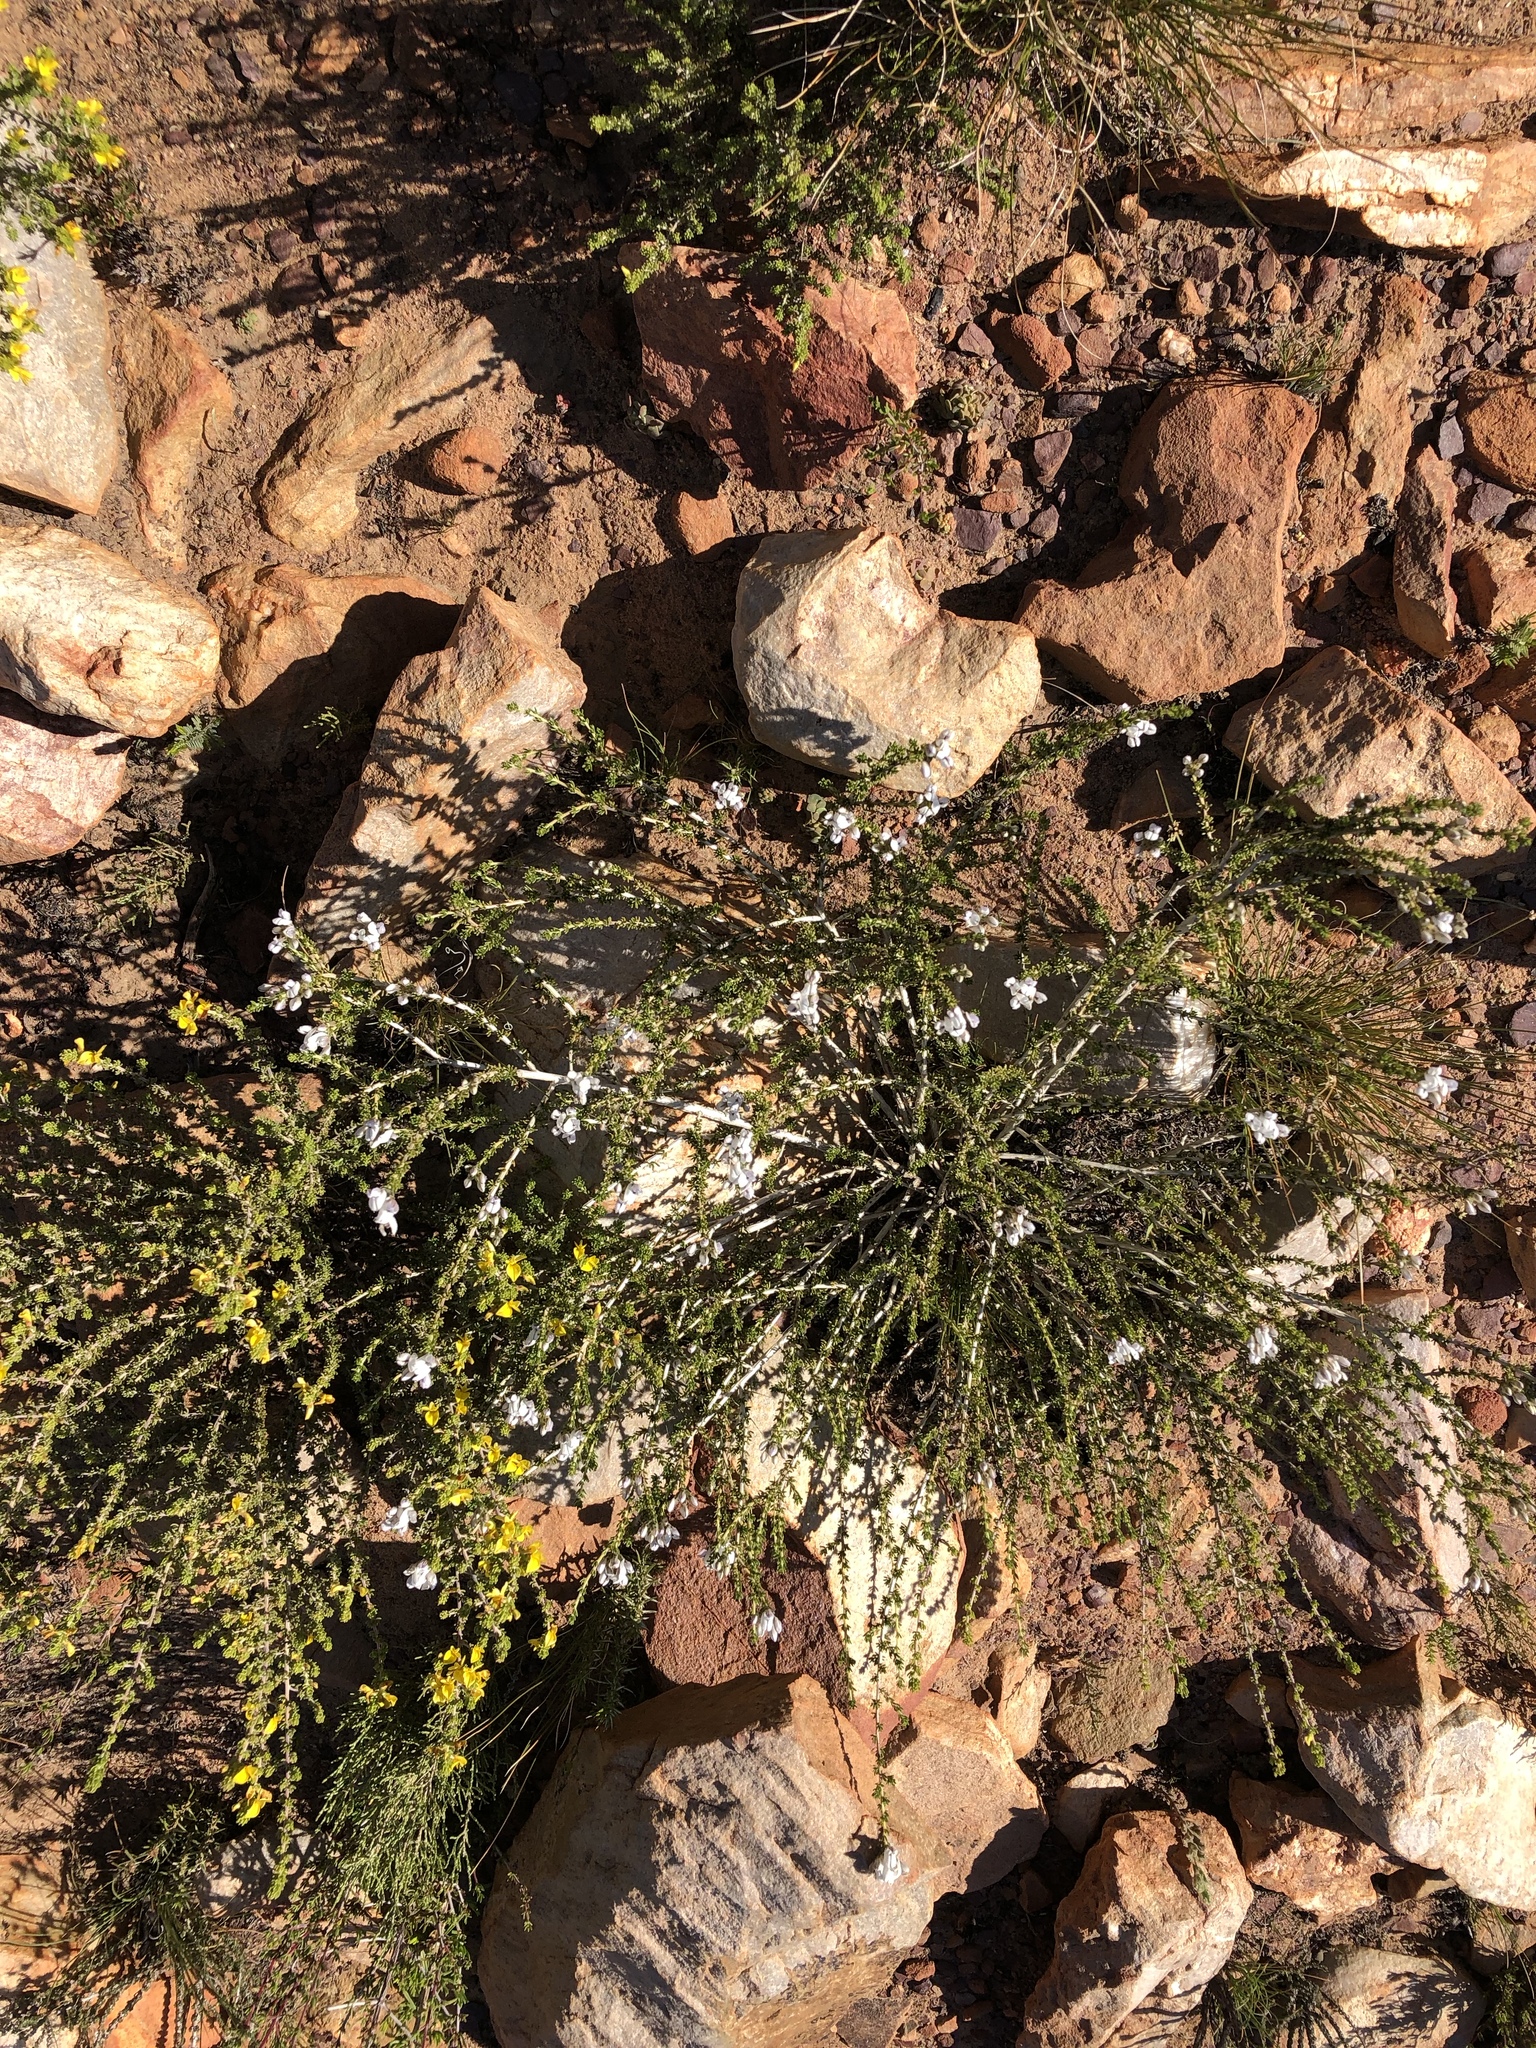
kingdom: Plantae
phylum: Tracheophyta
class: Magnoliopsida
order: Fabales
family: Fabaceae
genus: Aspalathus
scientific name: Aspalathus nigra
